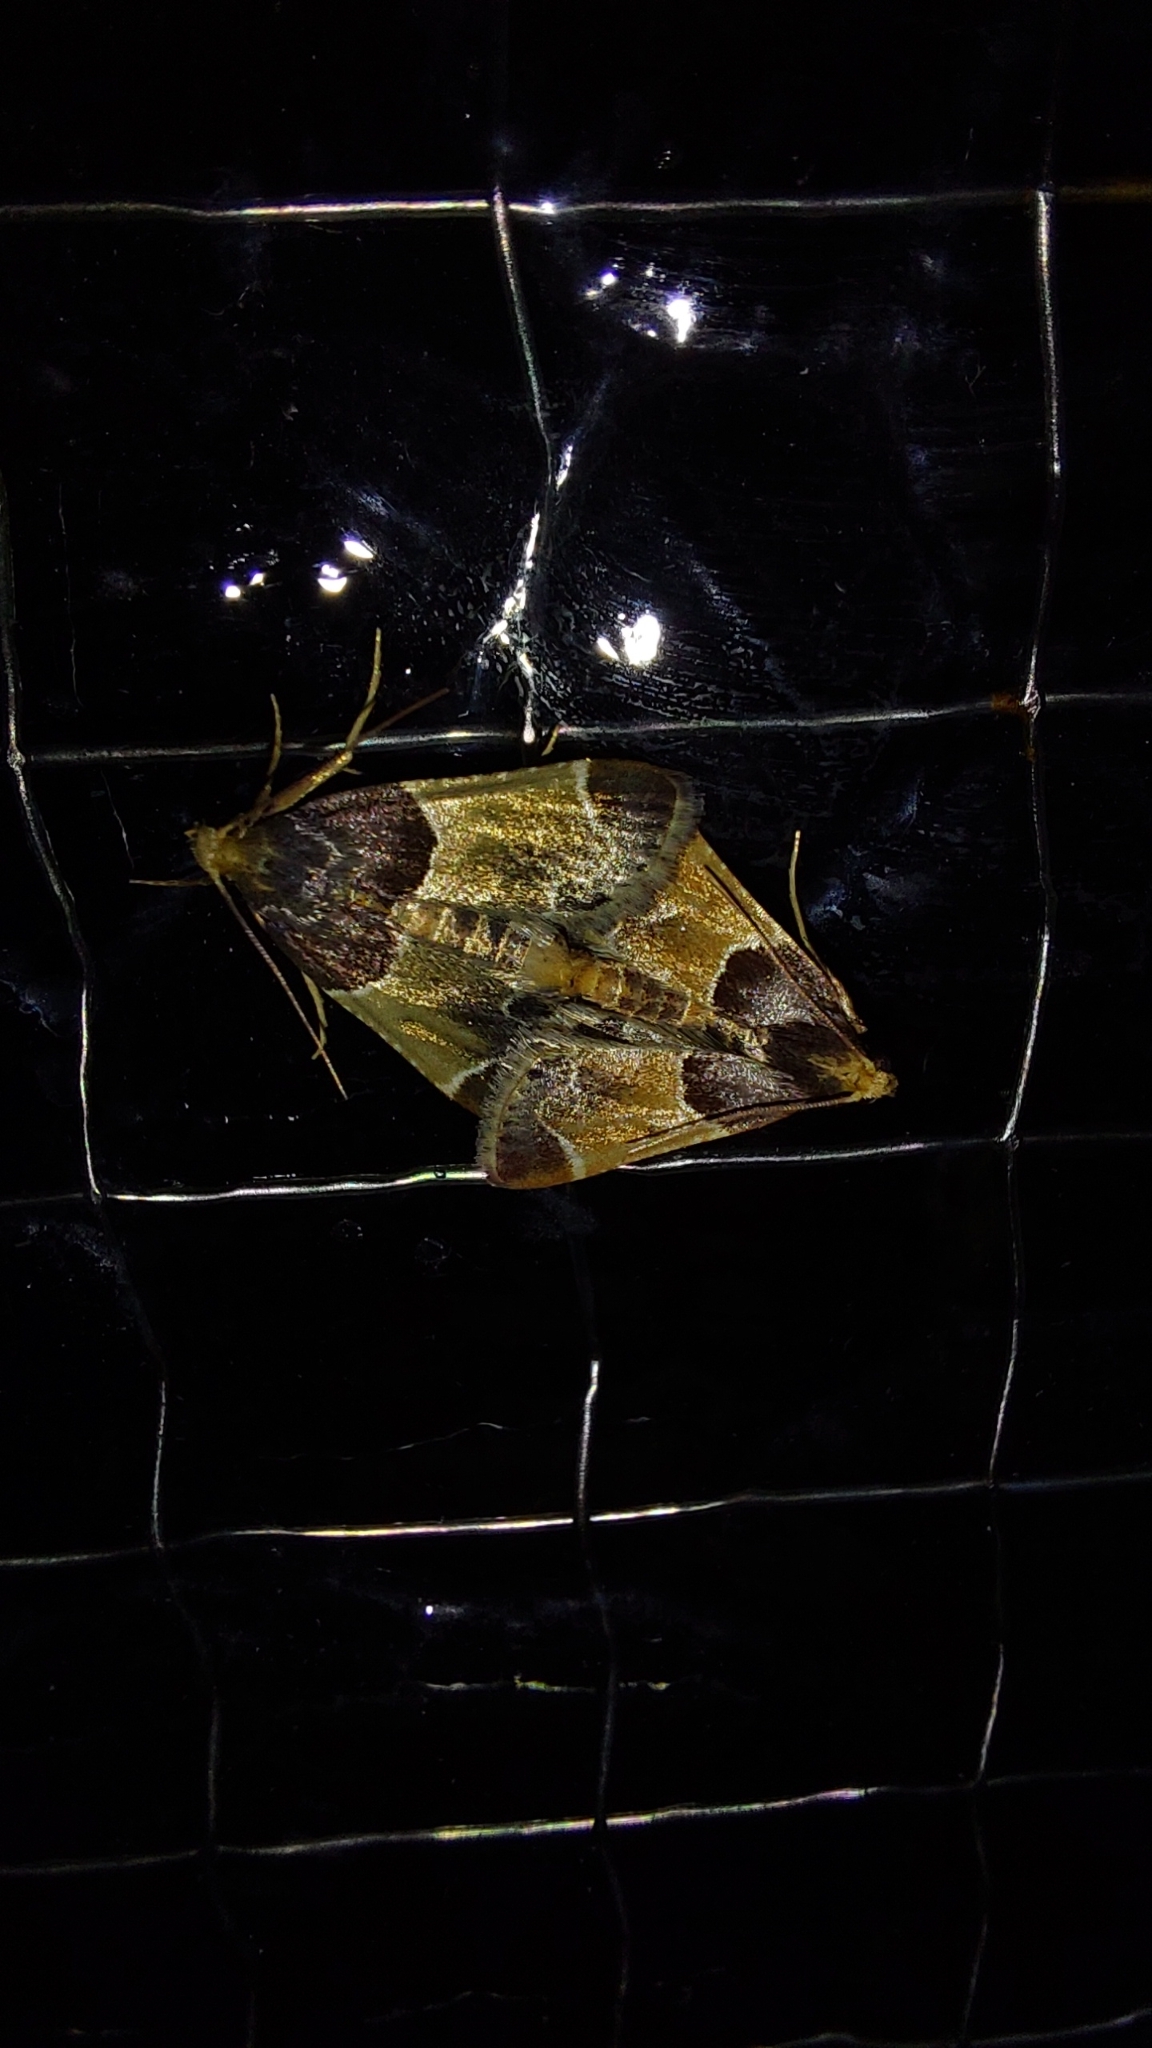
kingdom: Animalia
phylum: Arthropoda
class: Insecta
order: Lepidoptera
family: Pyralidae
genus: Pyralis
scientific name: Pyralis farinalis
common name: Meal moth
